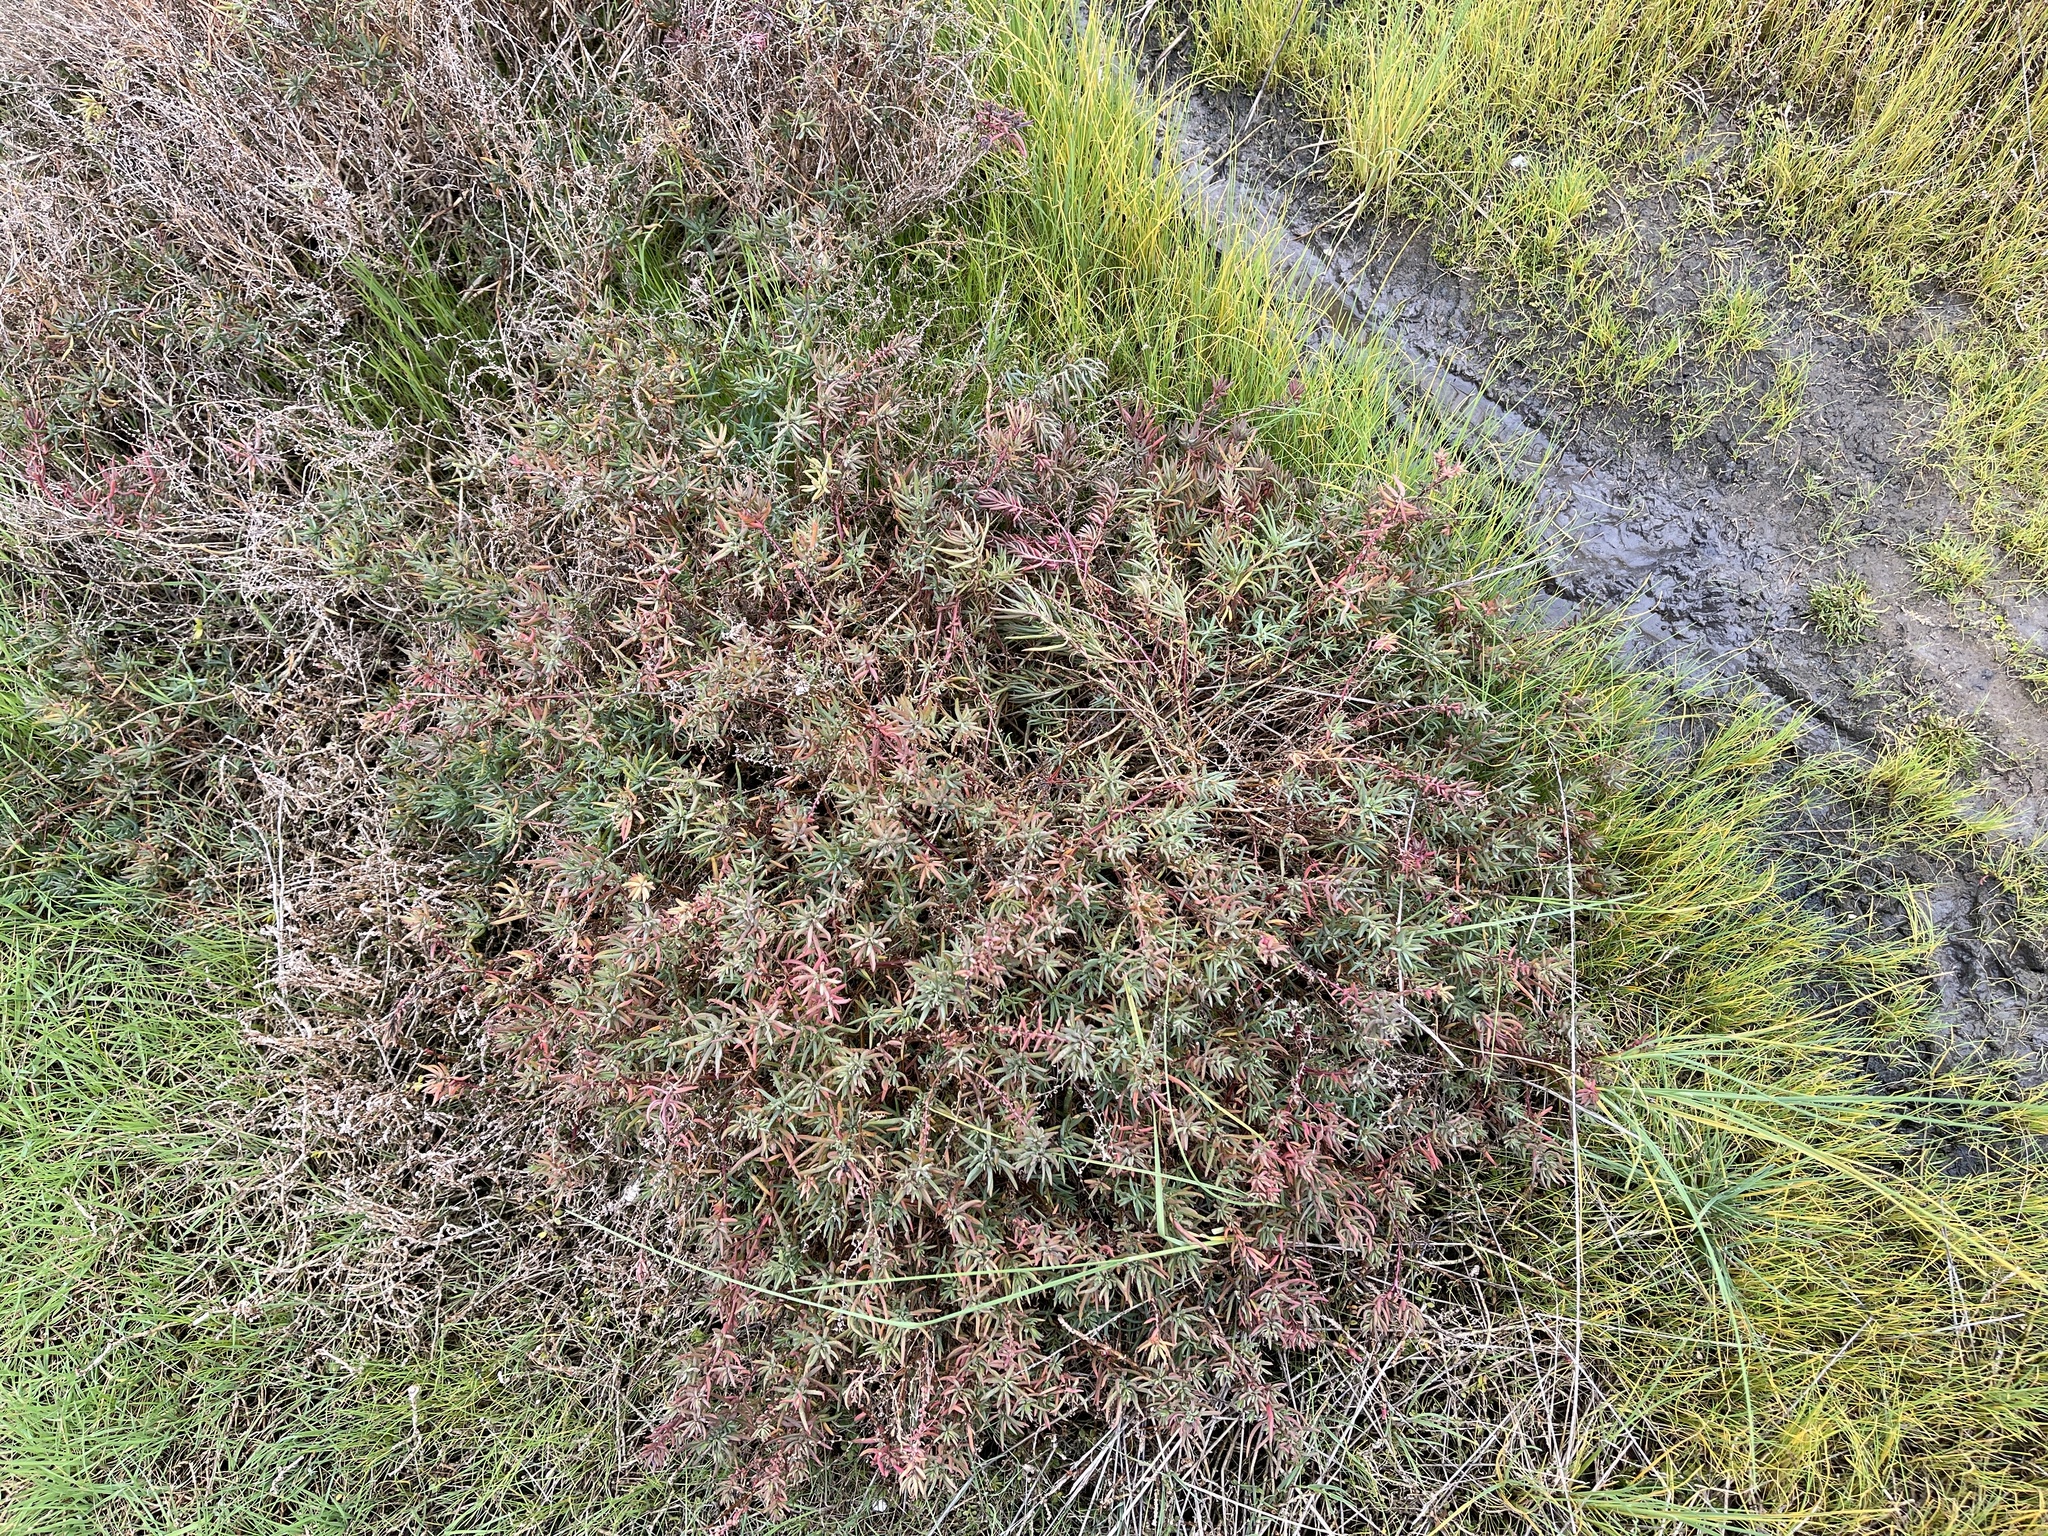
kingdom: Plantae
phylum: Tracheophyta
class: Magnoliopsida
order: Caryophyllales
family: Amaranthaceae
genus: Suaeda
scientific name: Suaeda australis
